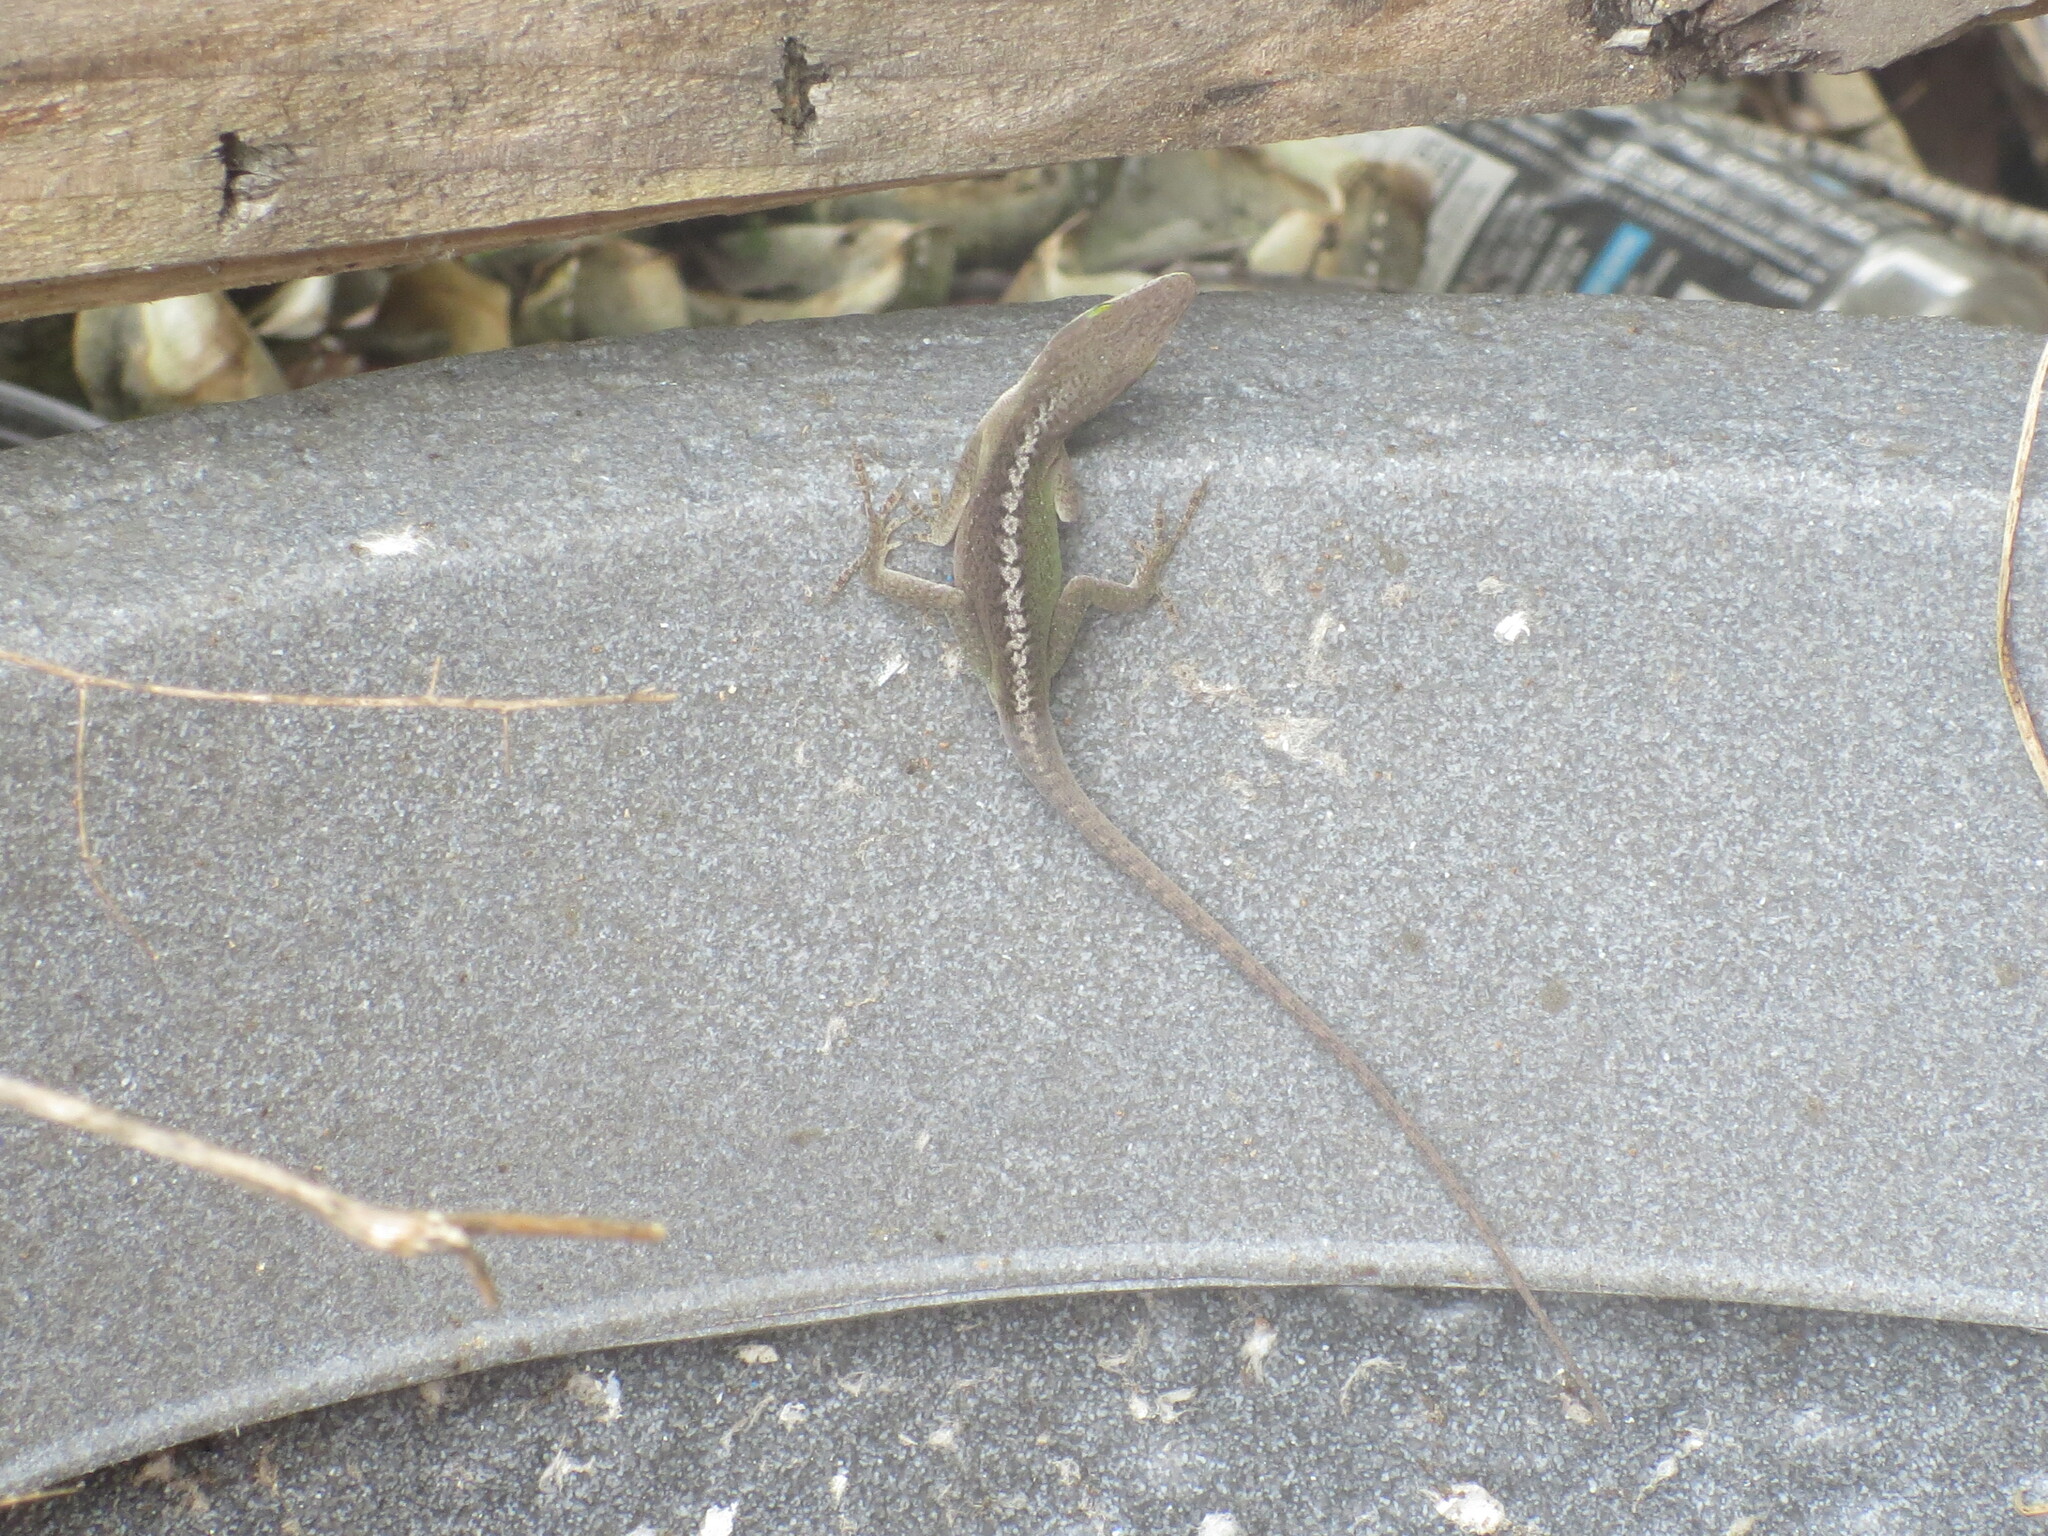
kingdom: Animalia
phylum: Chordata
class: Squamata
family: Dactyloidae
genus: Anolis
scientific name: Anolis carolinensis
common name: Green anole
